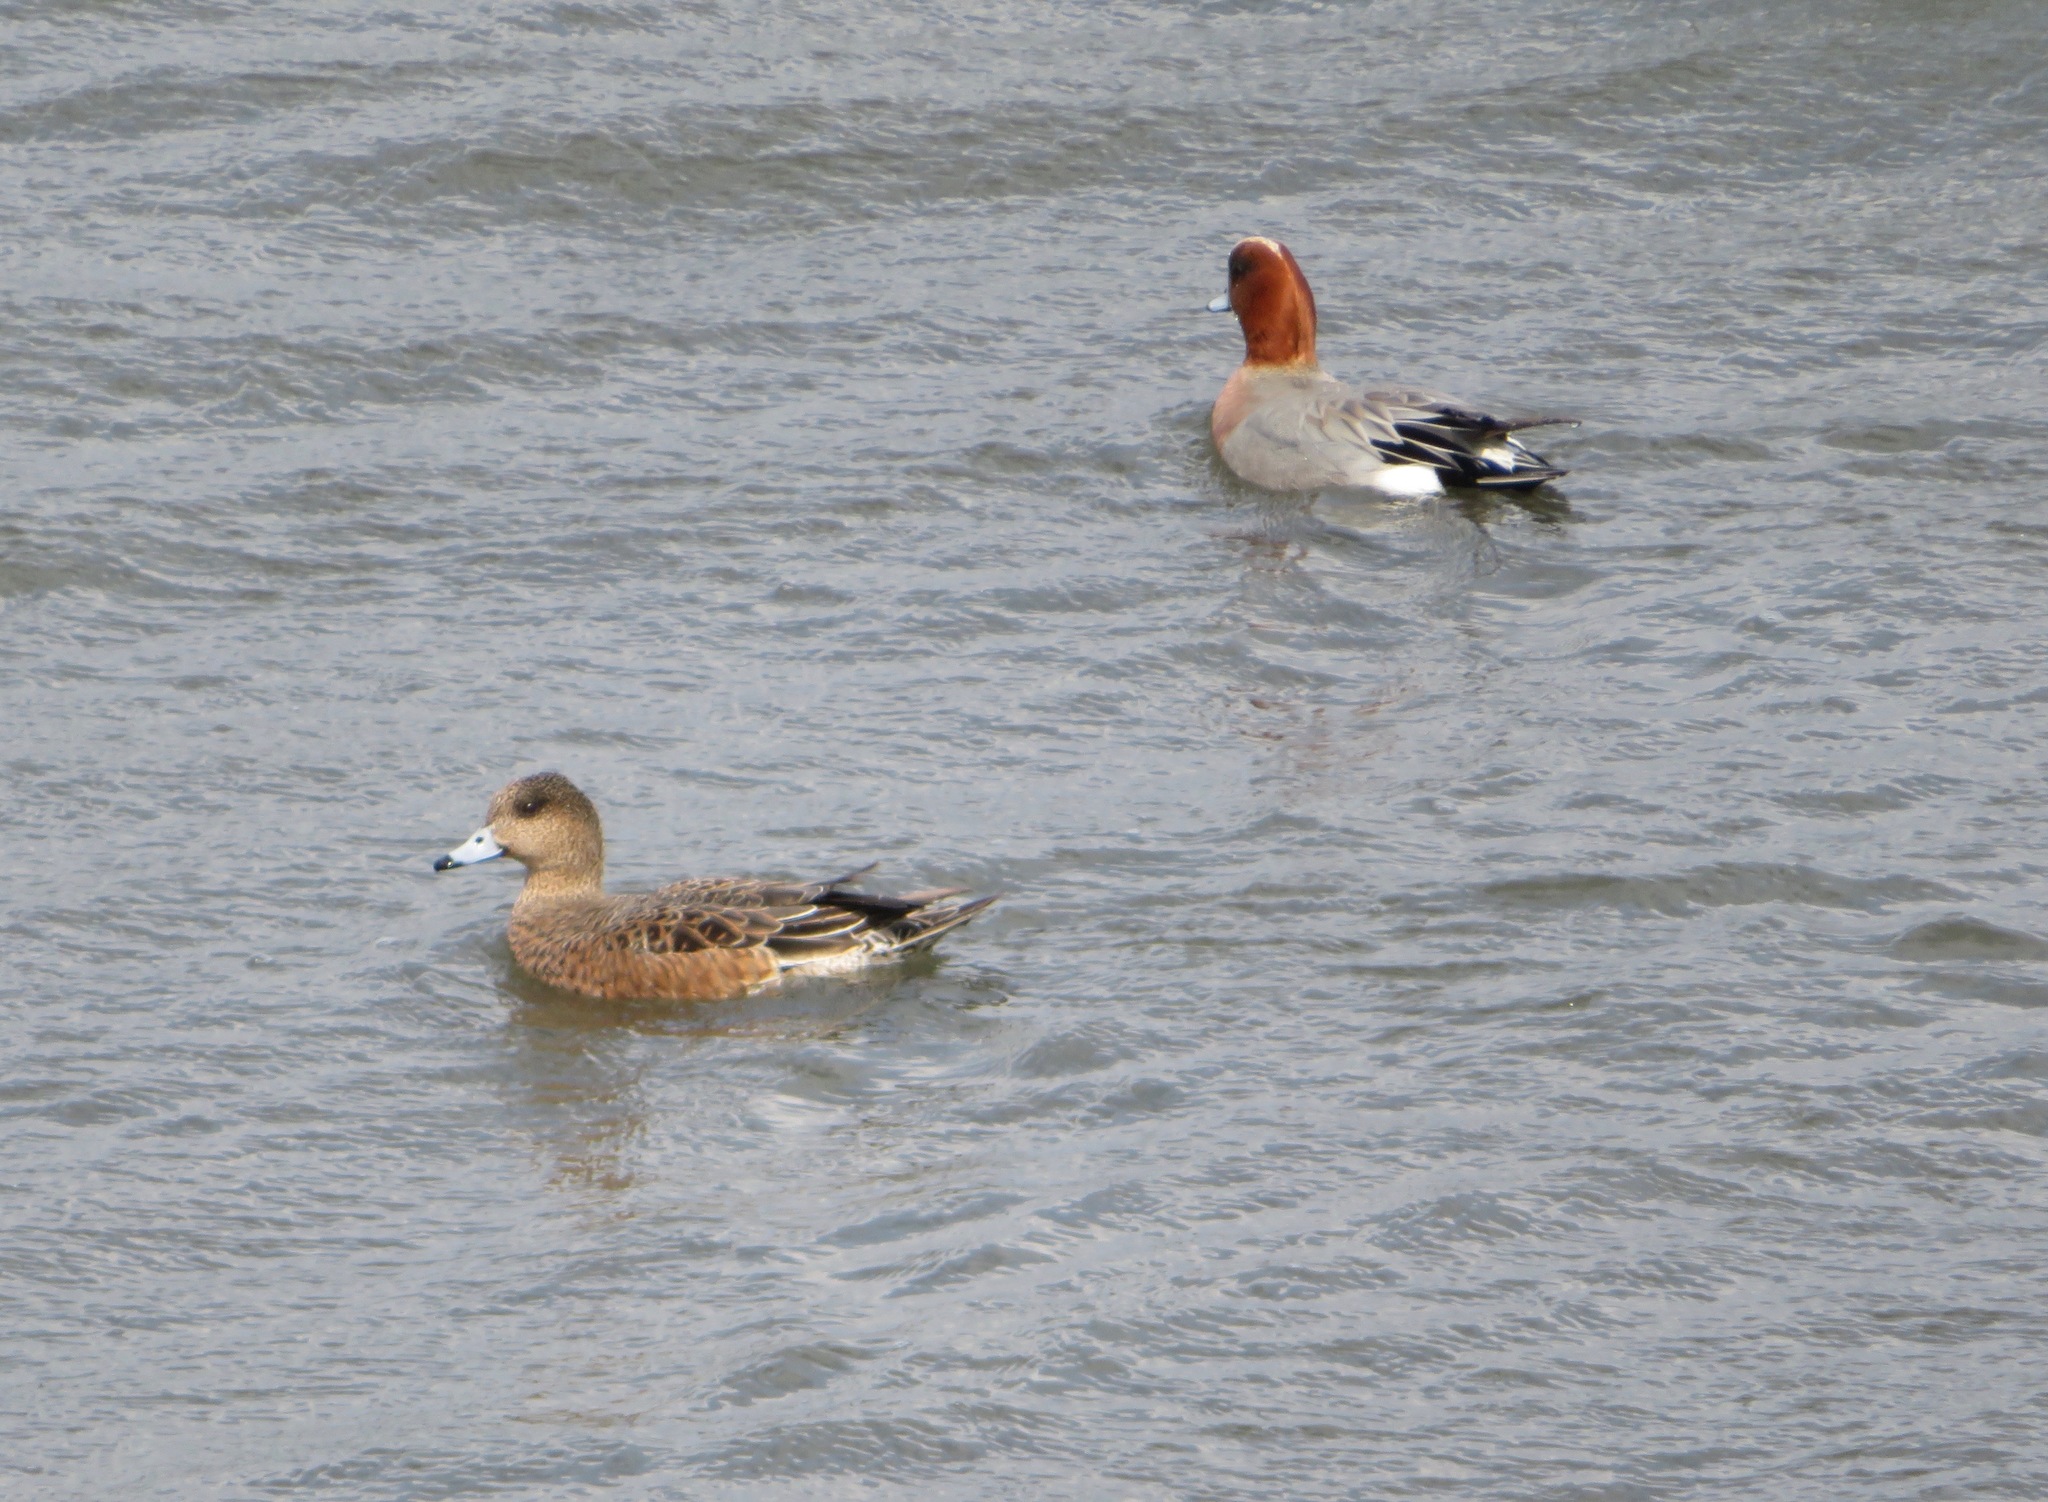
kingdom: Animalia
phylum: Chordata
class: Aves
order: Anseriformes
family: Anatidae
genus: Mareca
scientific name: Mareca penelope
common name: Eurasian wigeon
